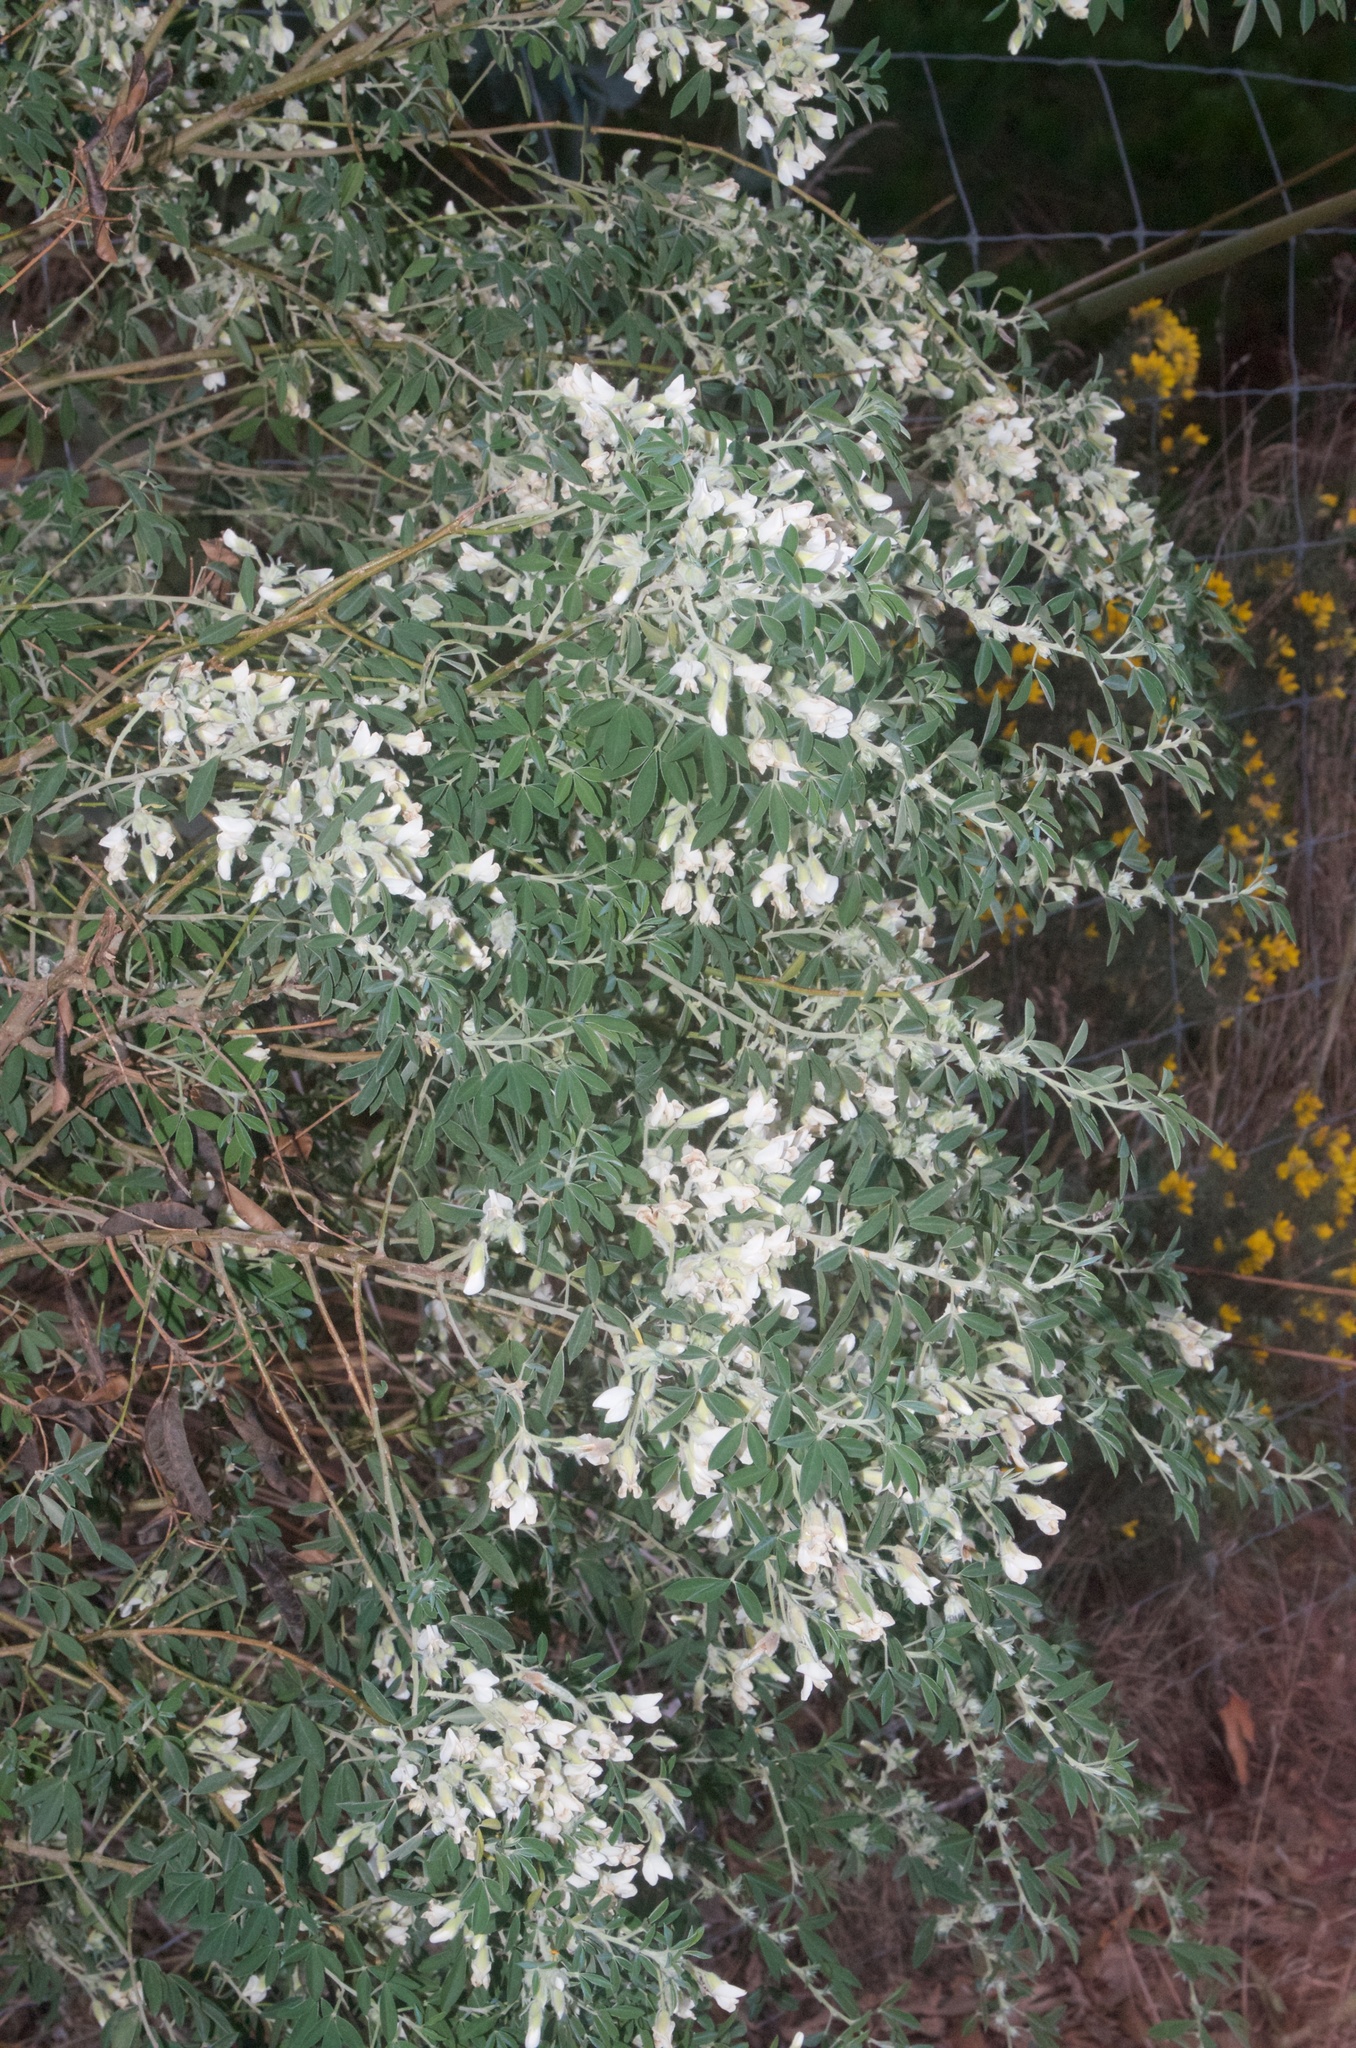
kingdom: Plantae
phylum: Tracheophyta
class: Magnoliopsida
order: Fabales
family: Fabaceae
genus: Chamaecytisus
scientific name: Chamaecytisus prolifer
